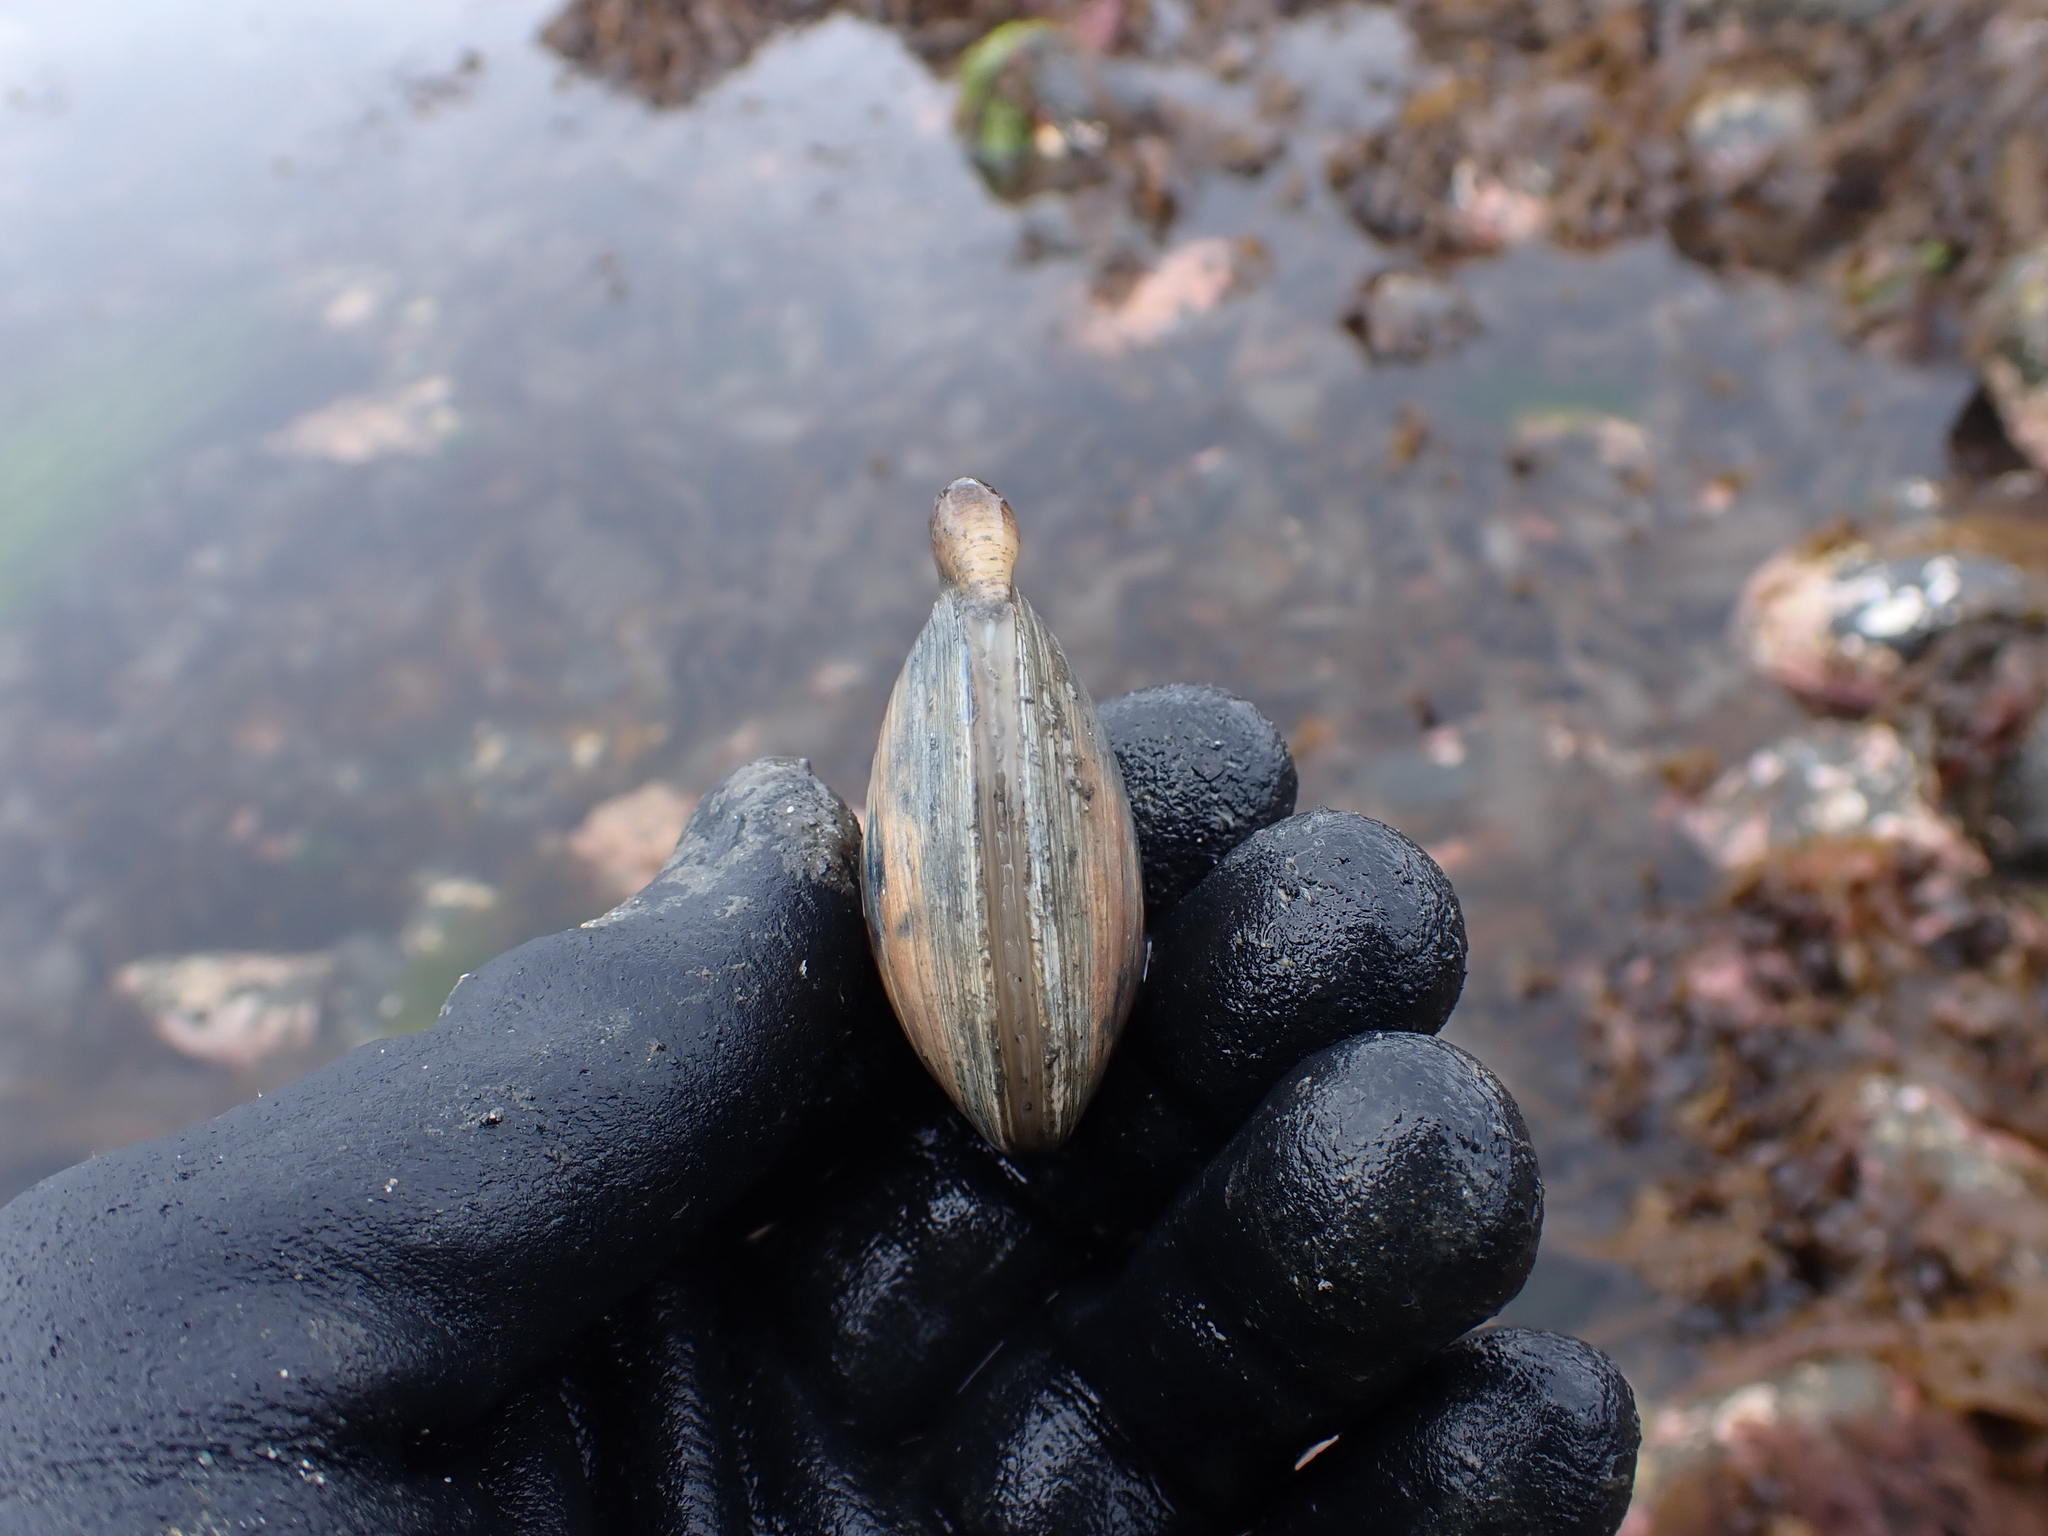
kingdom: Animalia
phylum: Mollusca
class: Bivalvia
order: Venerida
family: Veneridae
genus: Saxidomus
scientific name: Saxidomus gigantea
